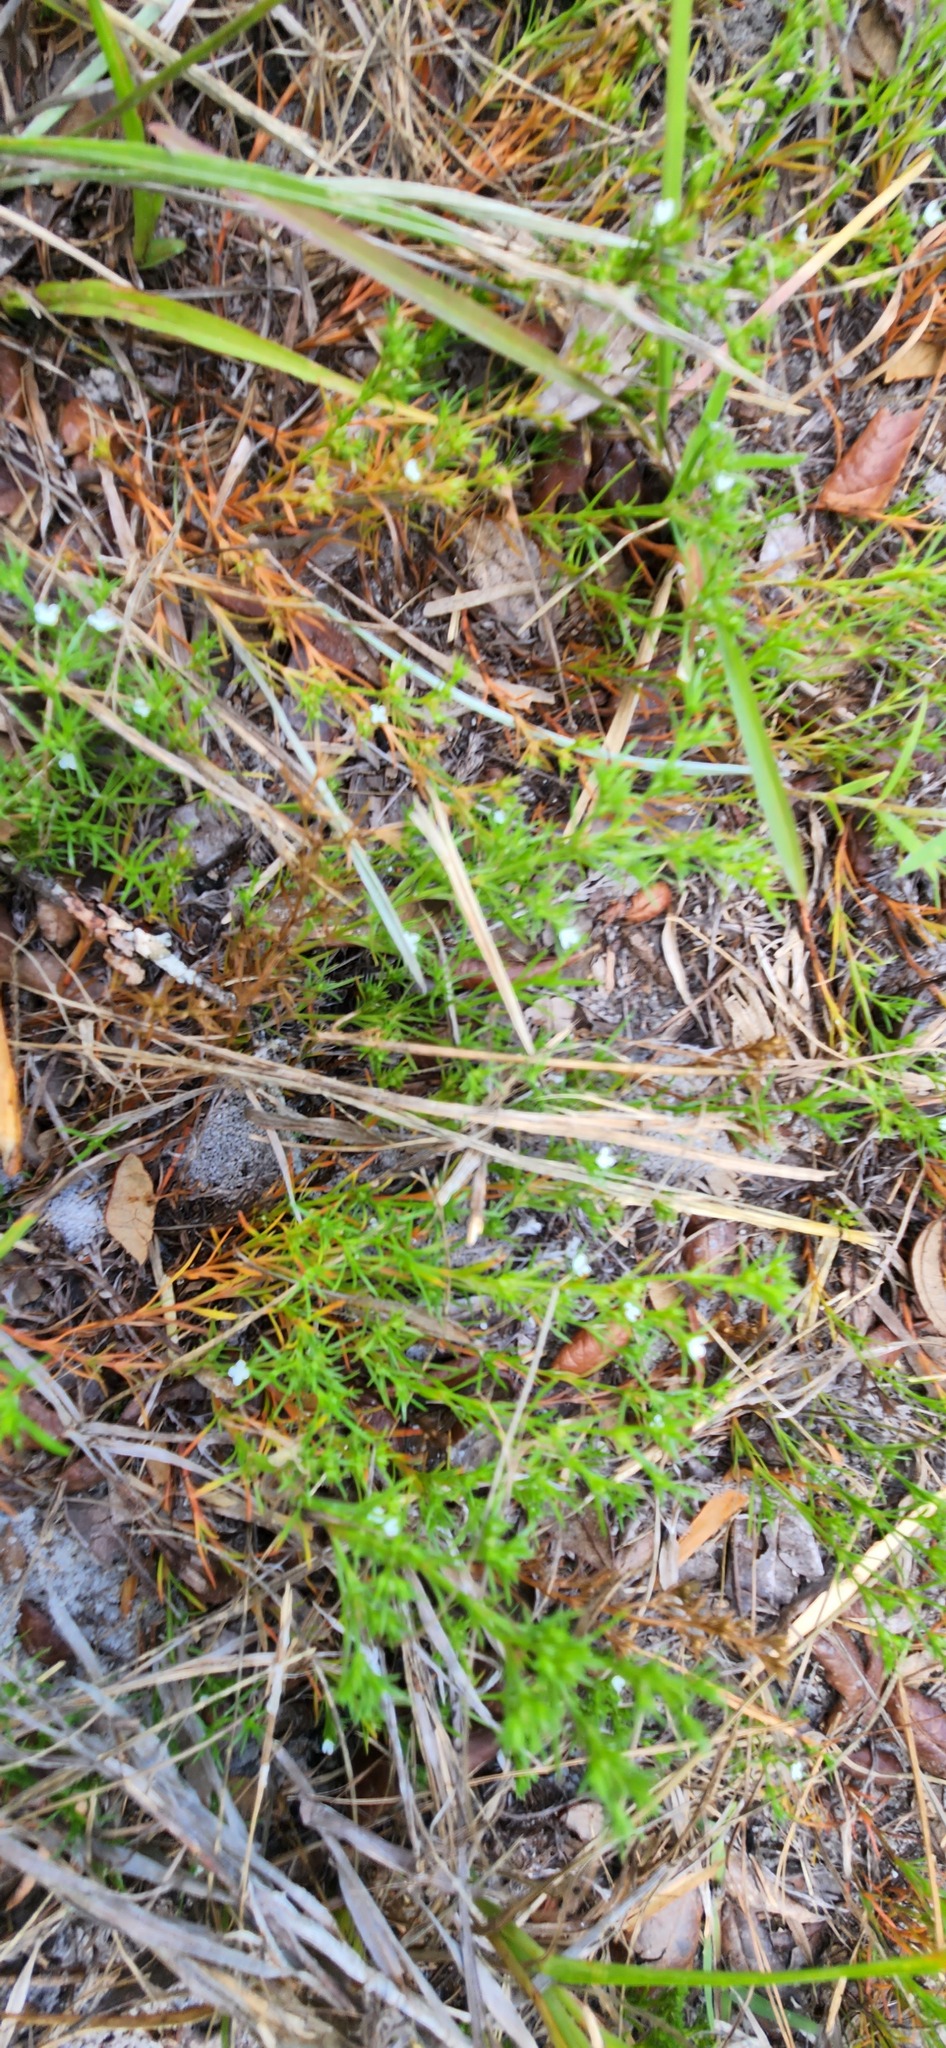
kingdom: Plantae
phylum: Tracheophyta
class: Magnoliopsida
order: Lamiales
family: Tetrachondraceae
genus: Polypremum
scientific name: Polypremum procumbens
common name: Juniper-leaf
